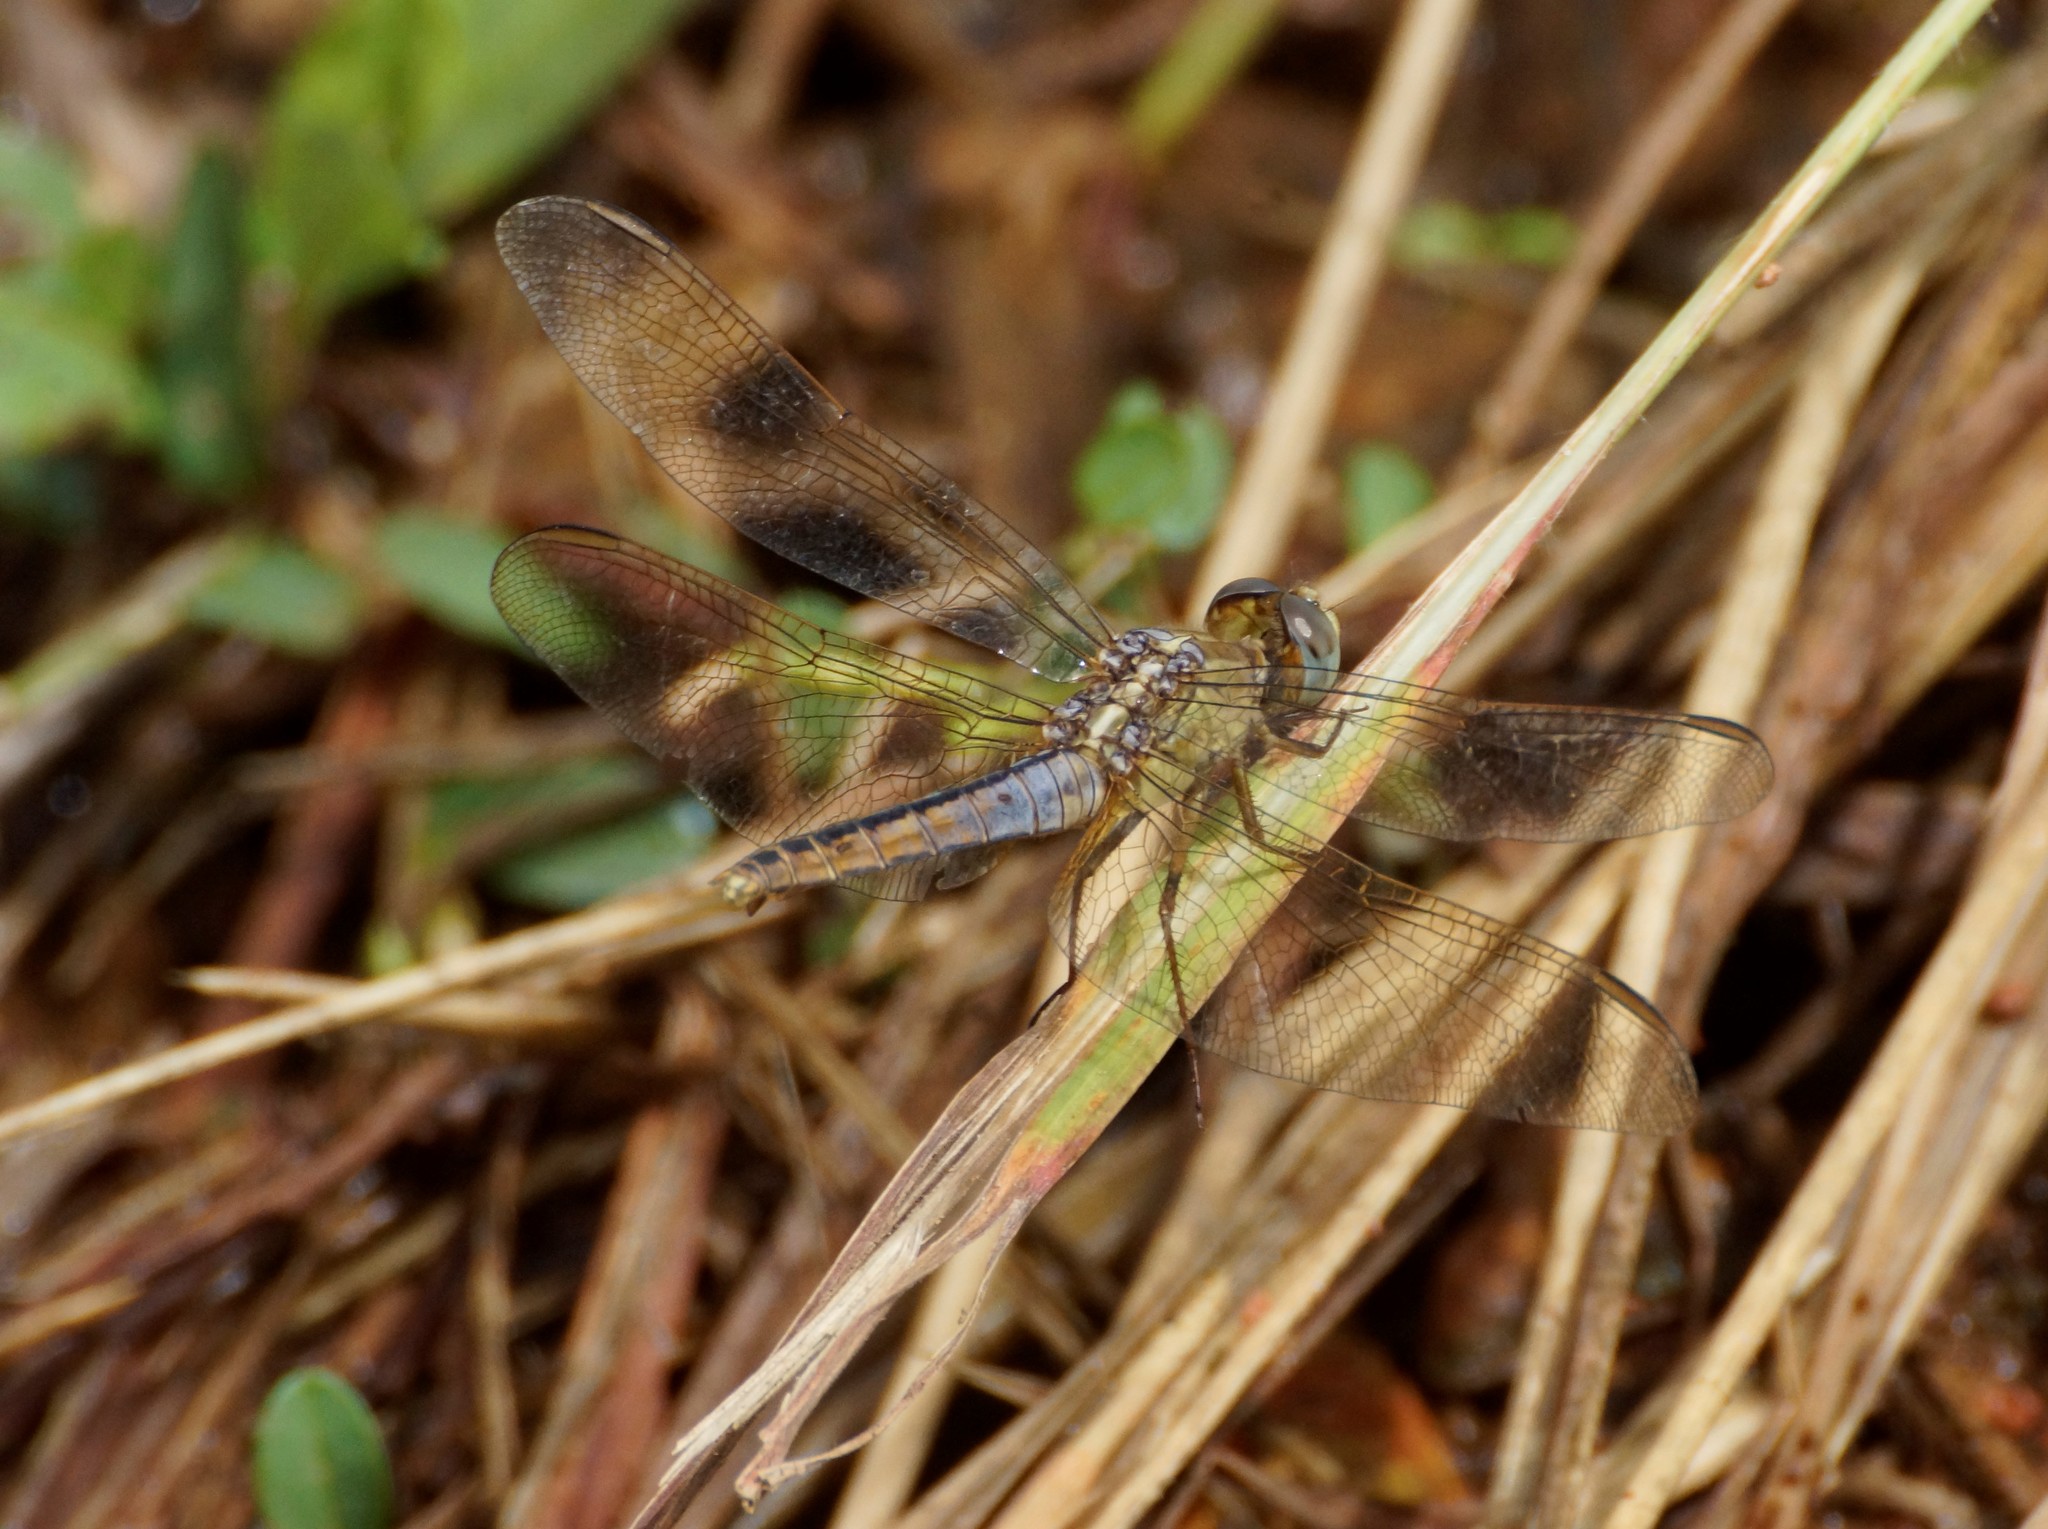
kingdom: Animalia
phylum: Arthropoda
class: Insecta
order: Odonata
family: Libellulidae
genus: Crocothemis
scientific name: Crocothemis nigrifrons
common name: Black-headed skimmer
